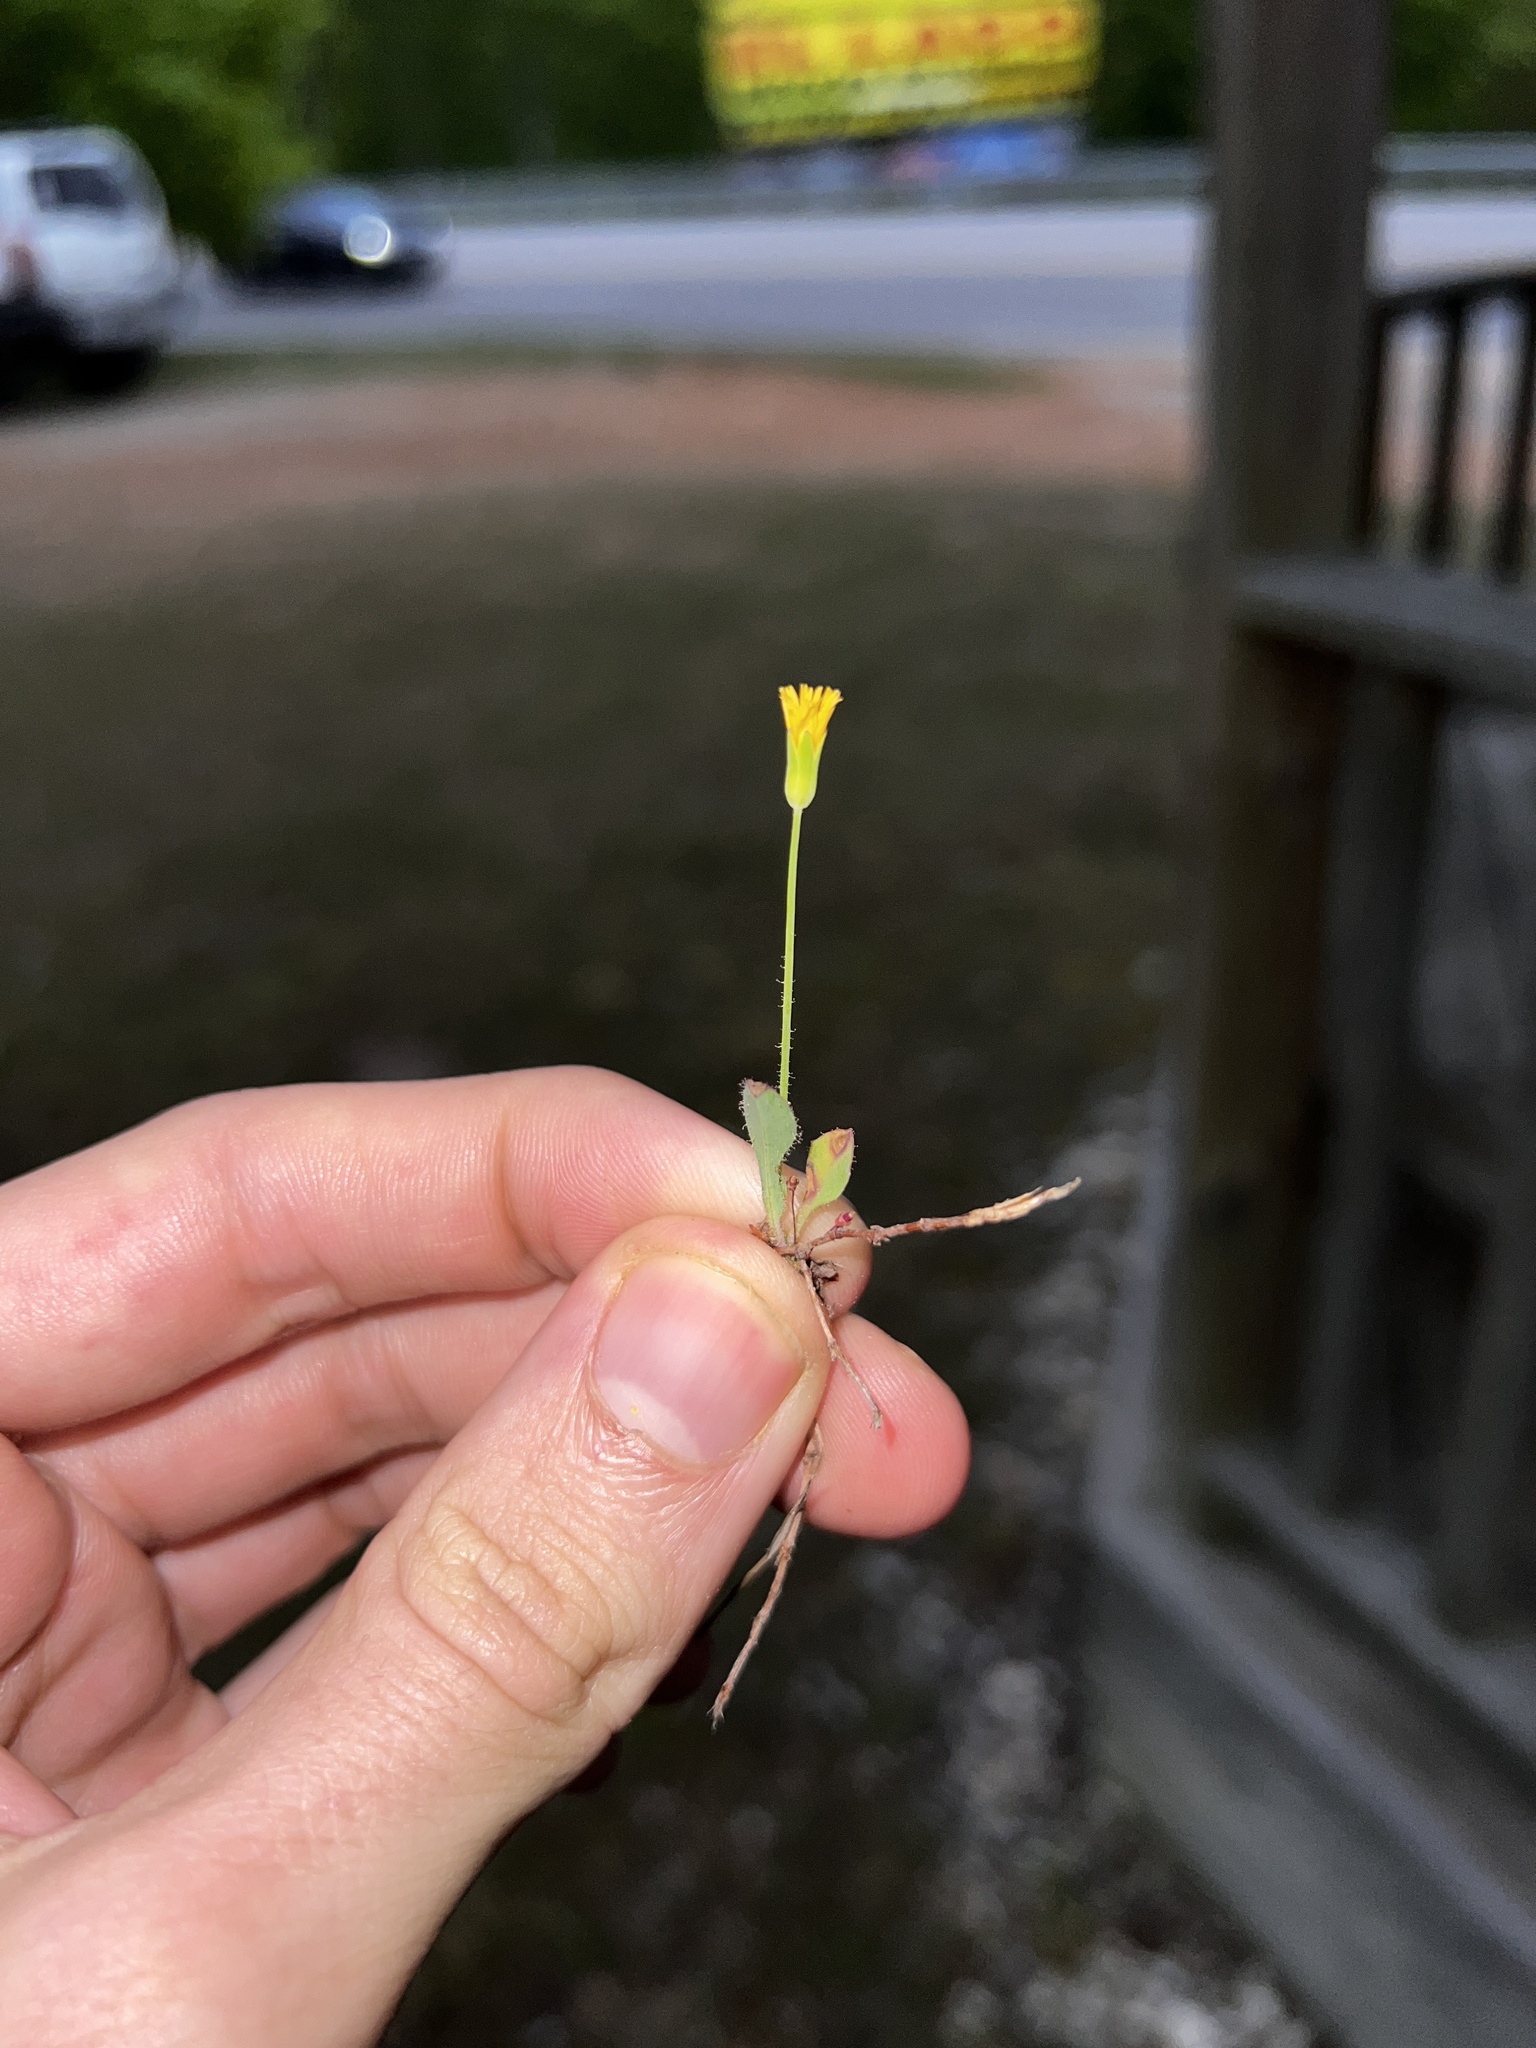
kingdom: Plantae
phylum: Tracheophyta
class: Magnoliopsida
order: Asterales
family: Asteraceae
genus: Krigia
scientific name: Krigia virginica
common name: Virginia dwarf-dandelion
